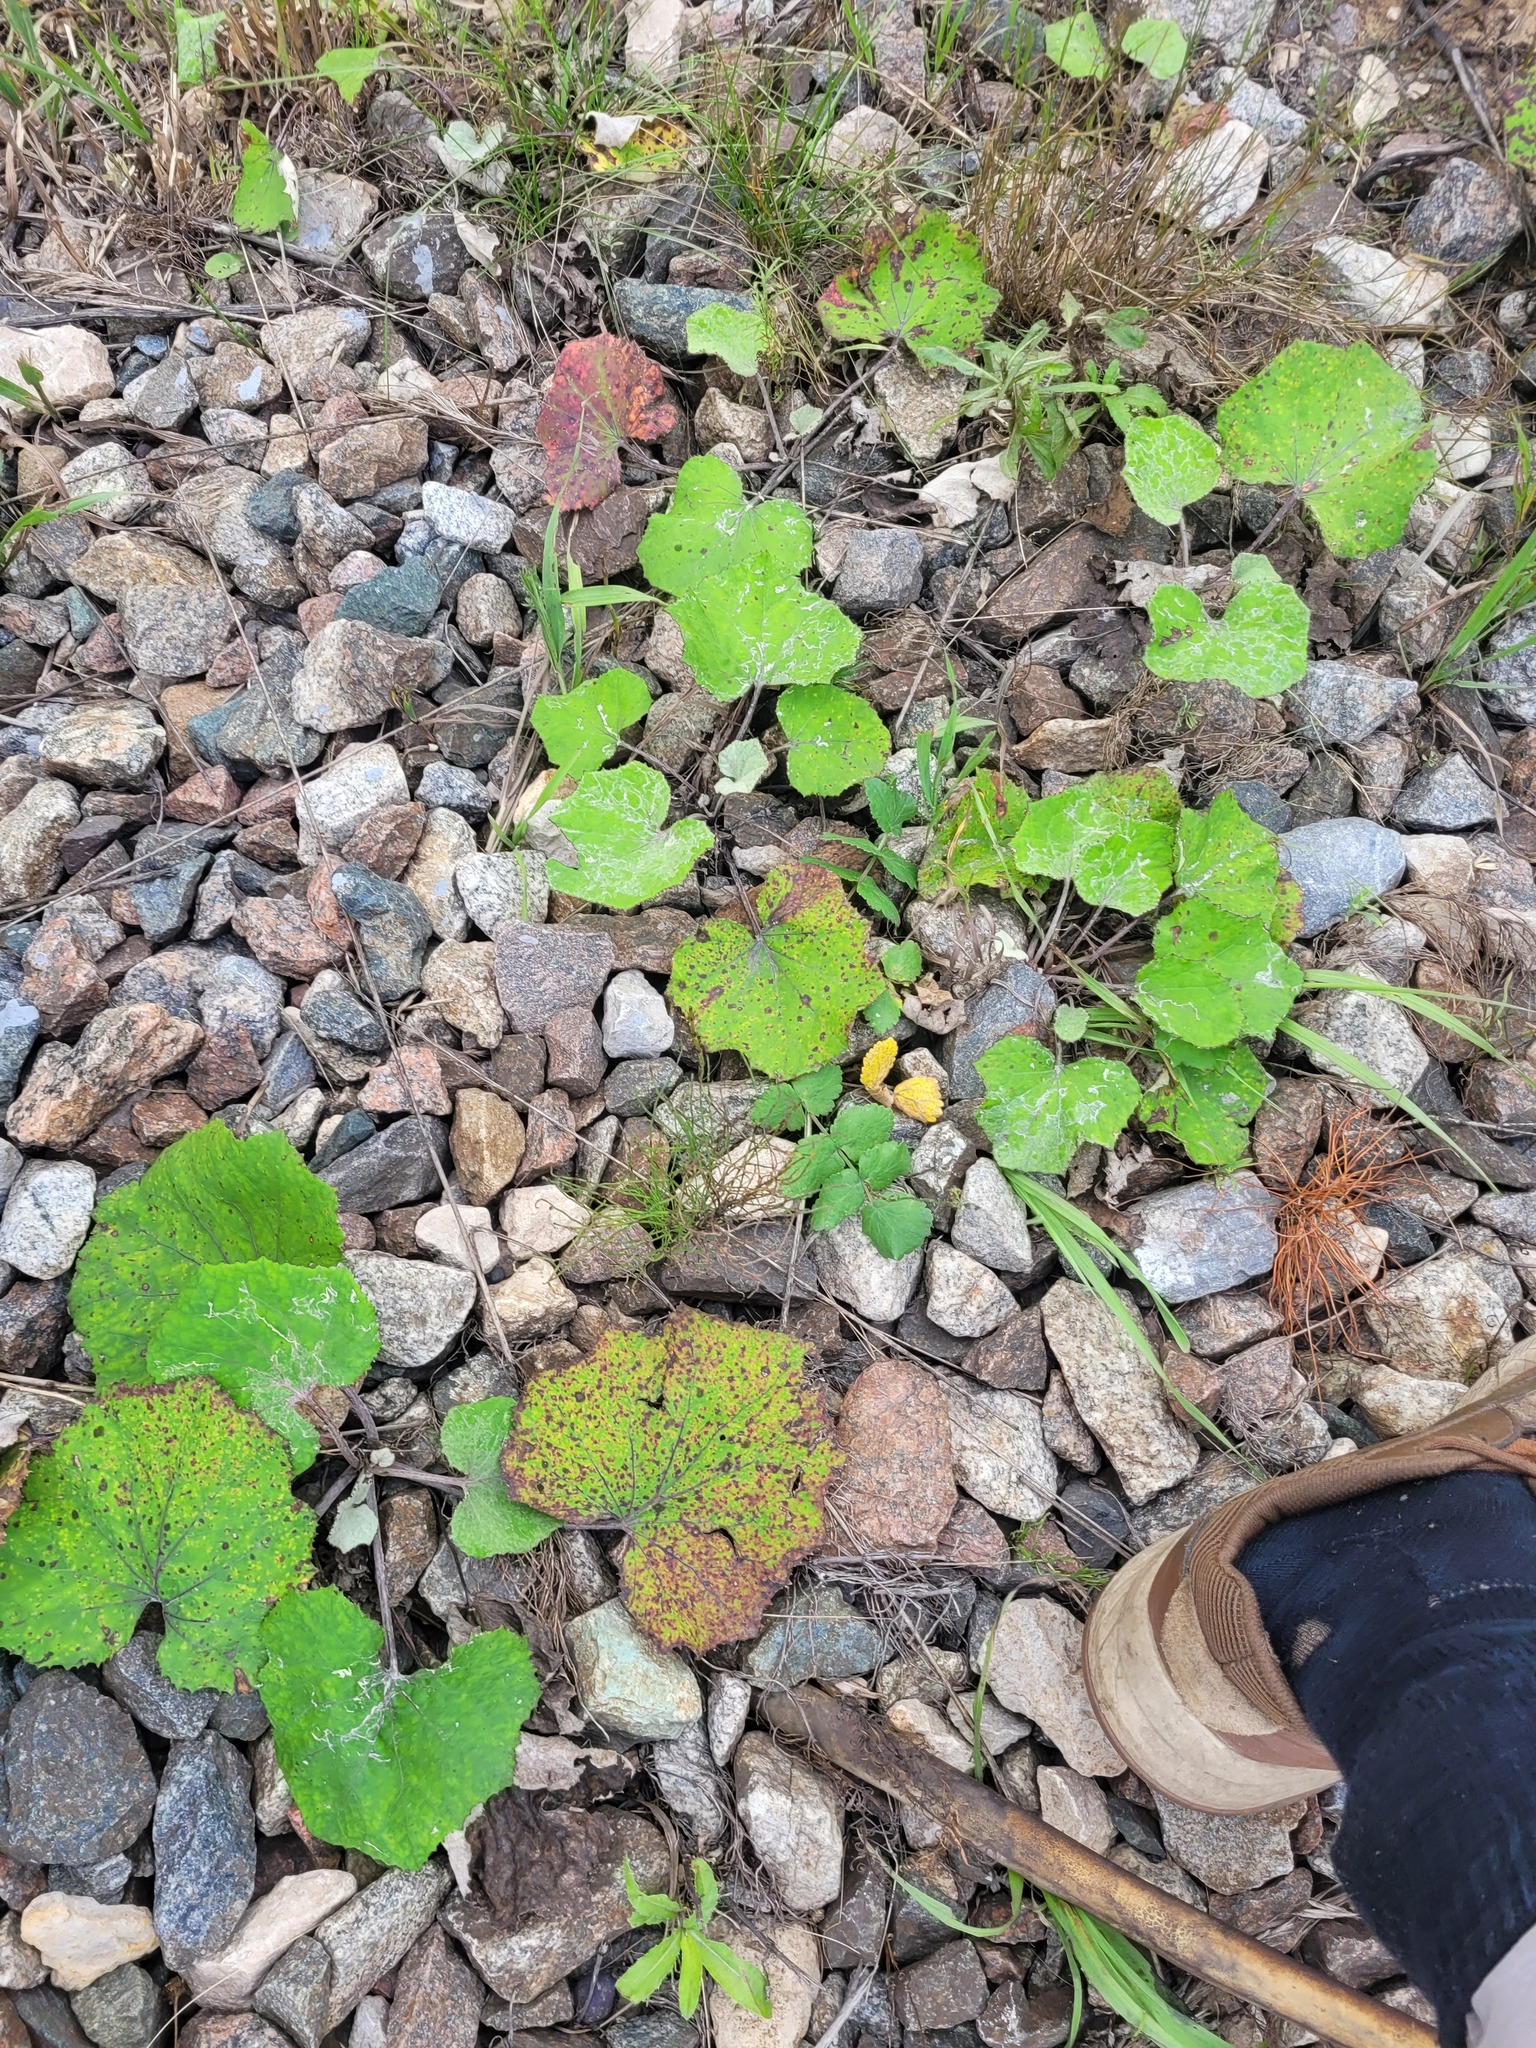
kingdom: Plantae
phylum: Tracheophyta
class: Magnoliopsida
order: Asterales
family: Asteraceae
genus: Tussilago
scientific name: Tussilago farfara
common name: Coltsfoot
